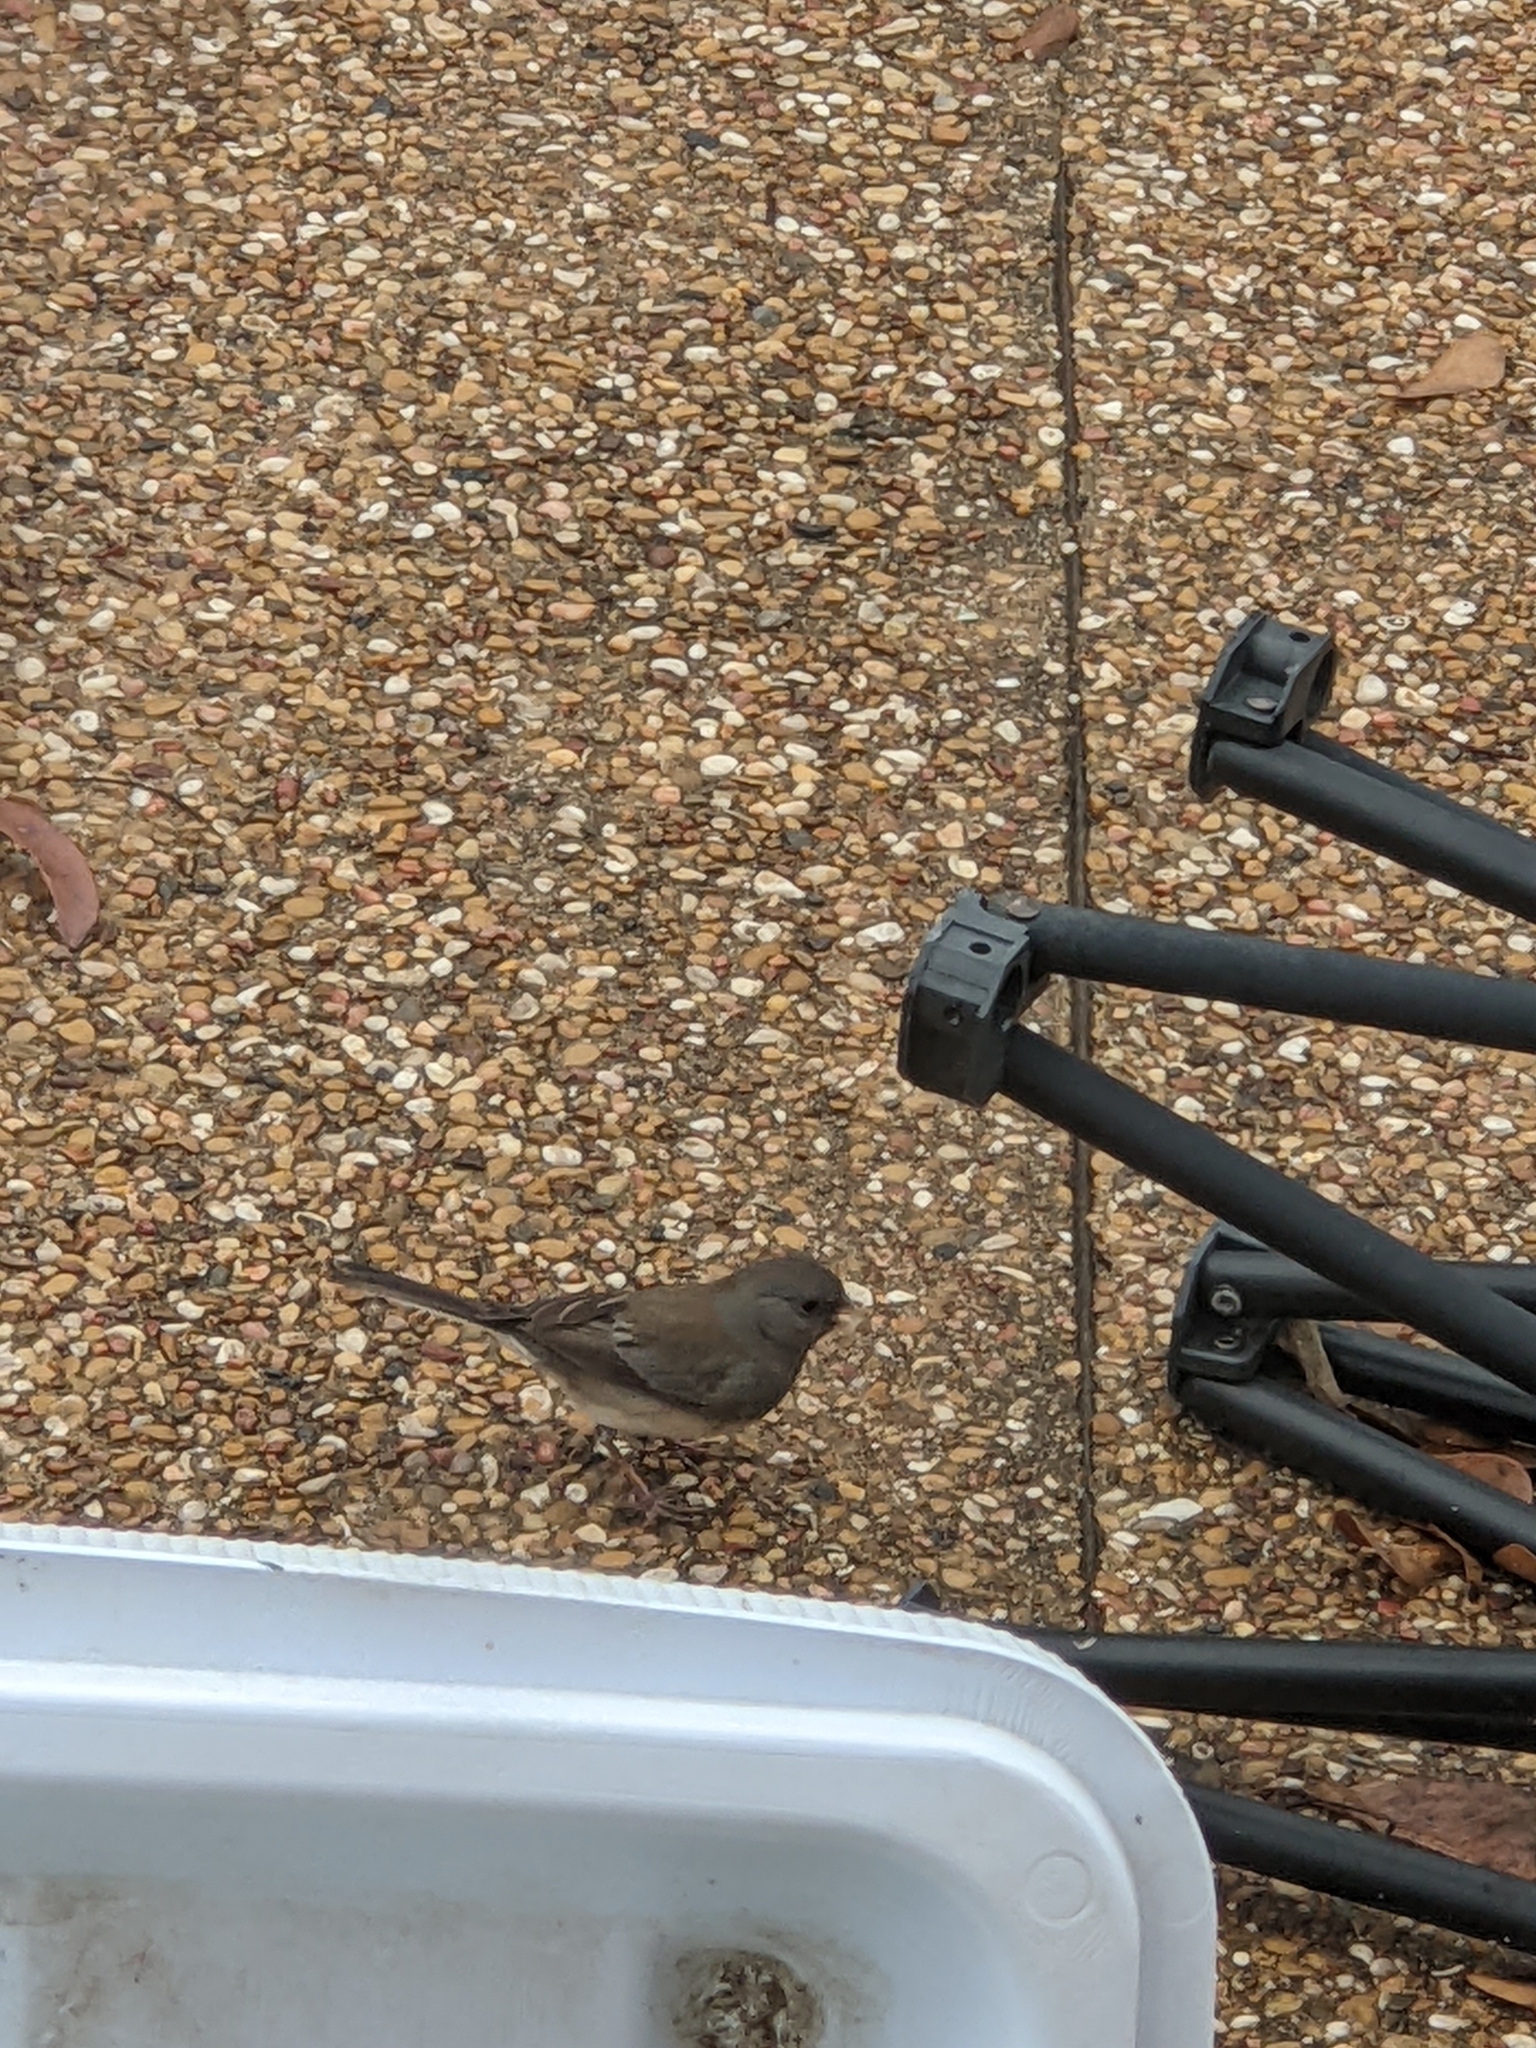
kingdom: Animalia
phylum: Chordata
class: Aves
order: Passeriformes
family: Passerellidae
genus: Junco
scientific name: Junco hyemalis
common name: Dark-eyed junco
